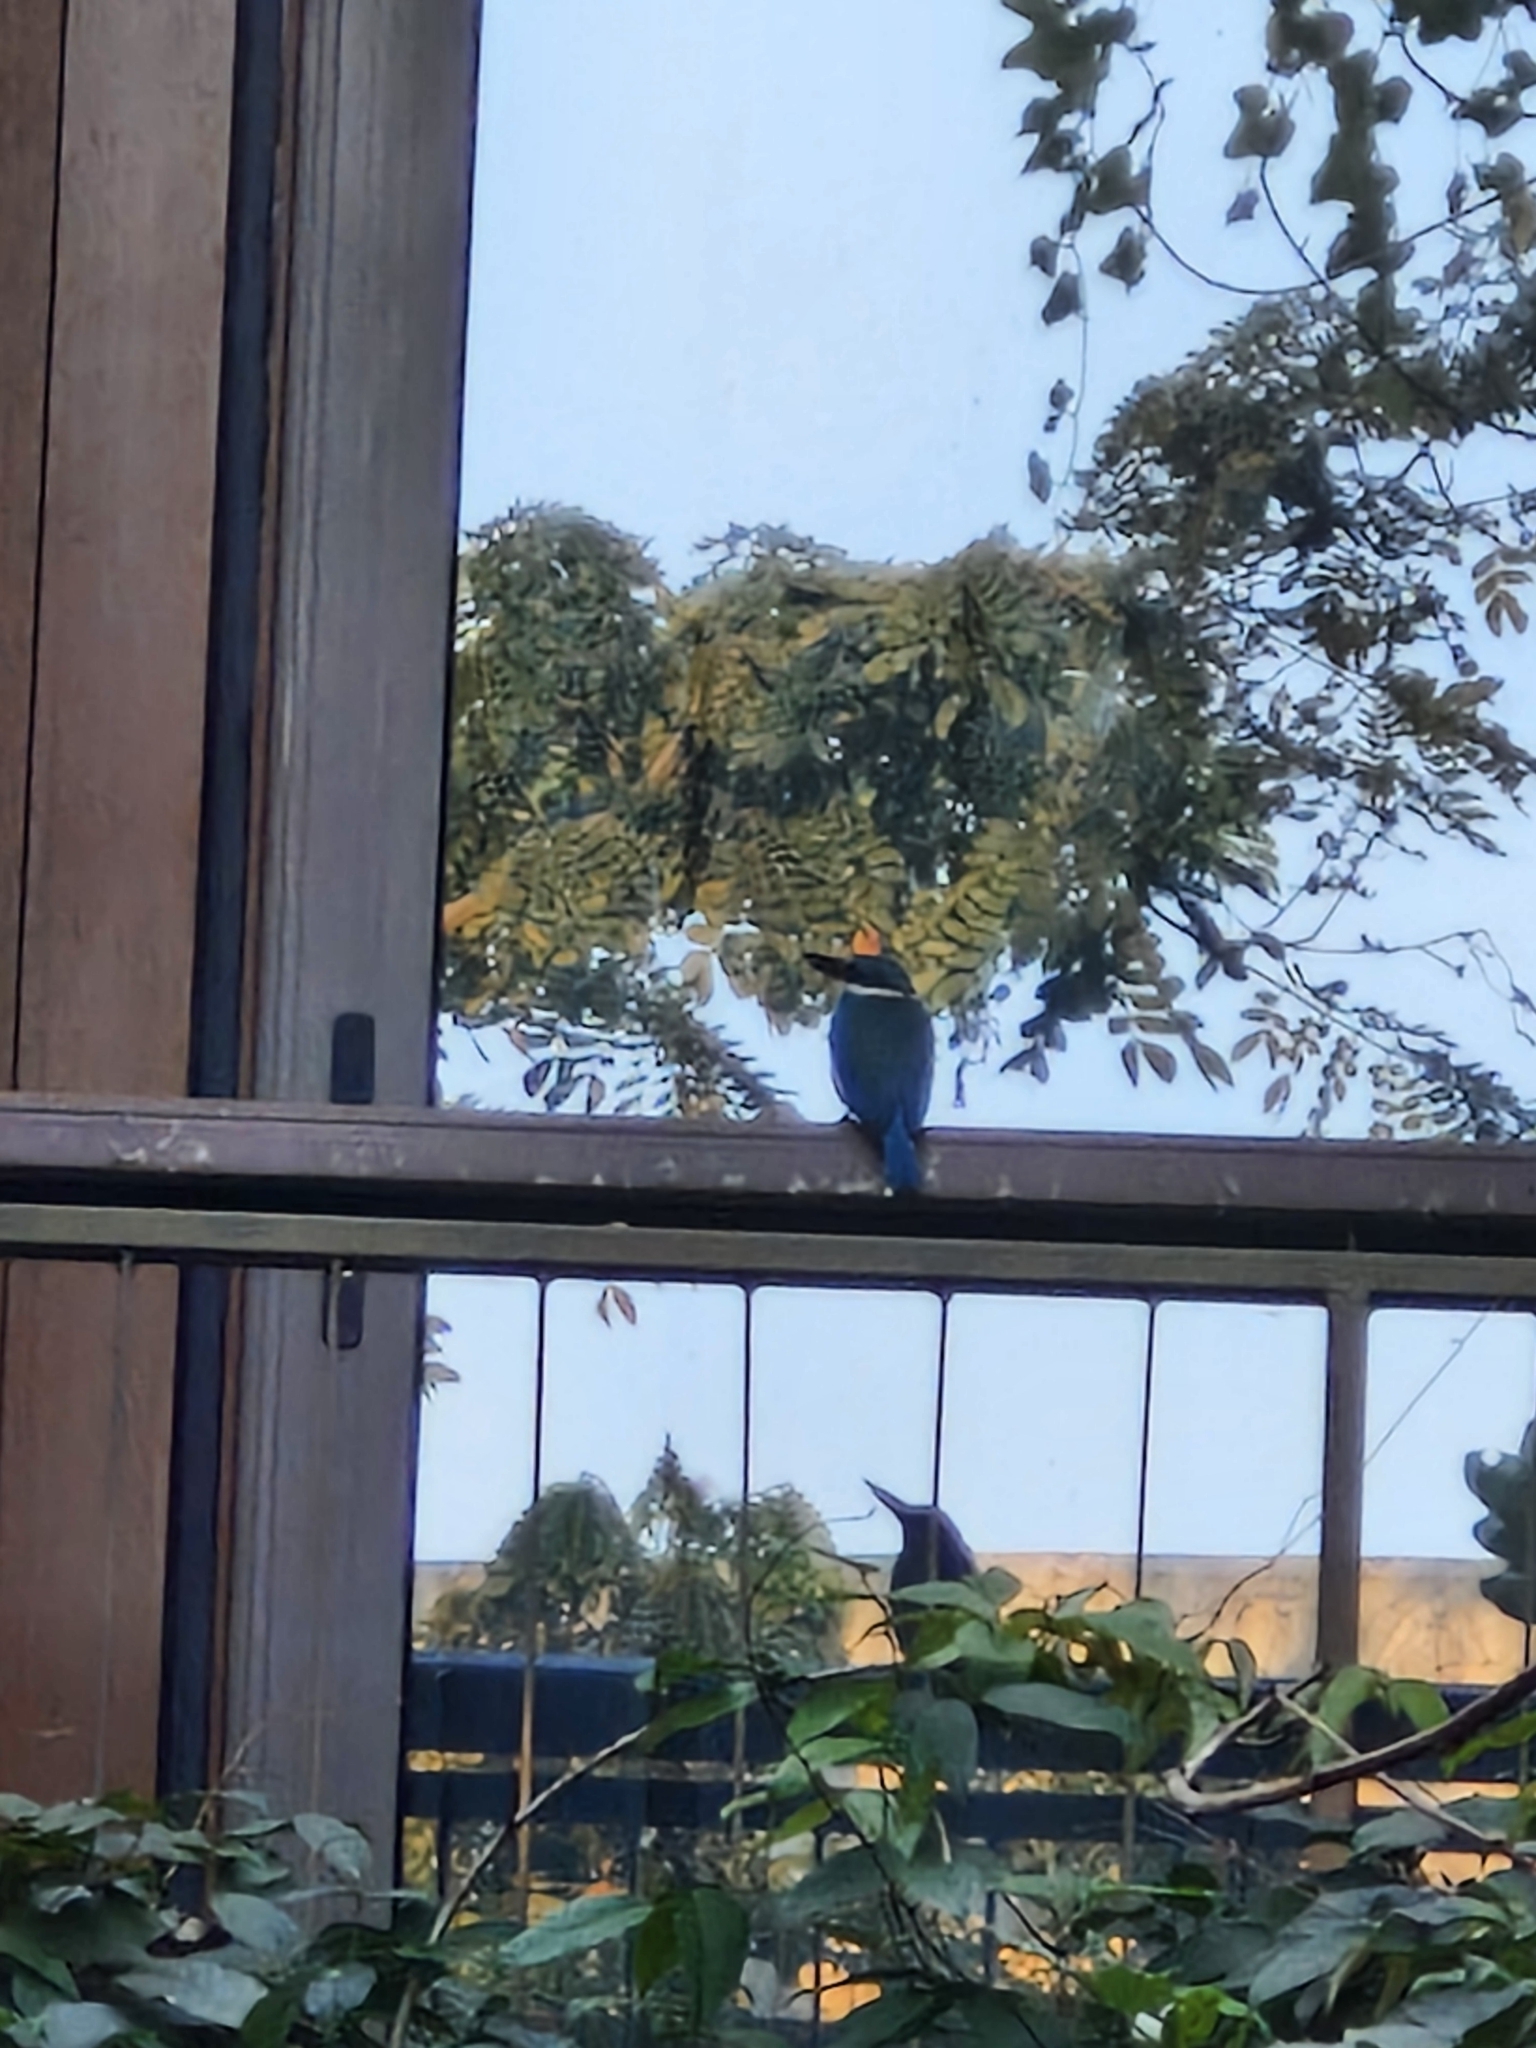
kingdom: Animalia
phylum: Chordata
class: Aves
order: Coraciiformes
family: Alcedinidae
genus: Todiramphus
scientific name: Todiramphus chloris
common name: Collared kingfisher
